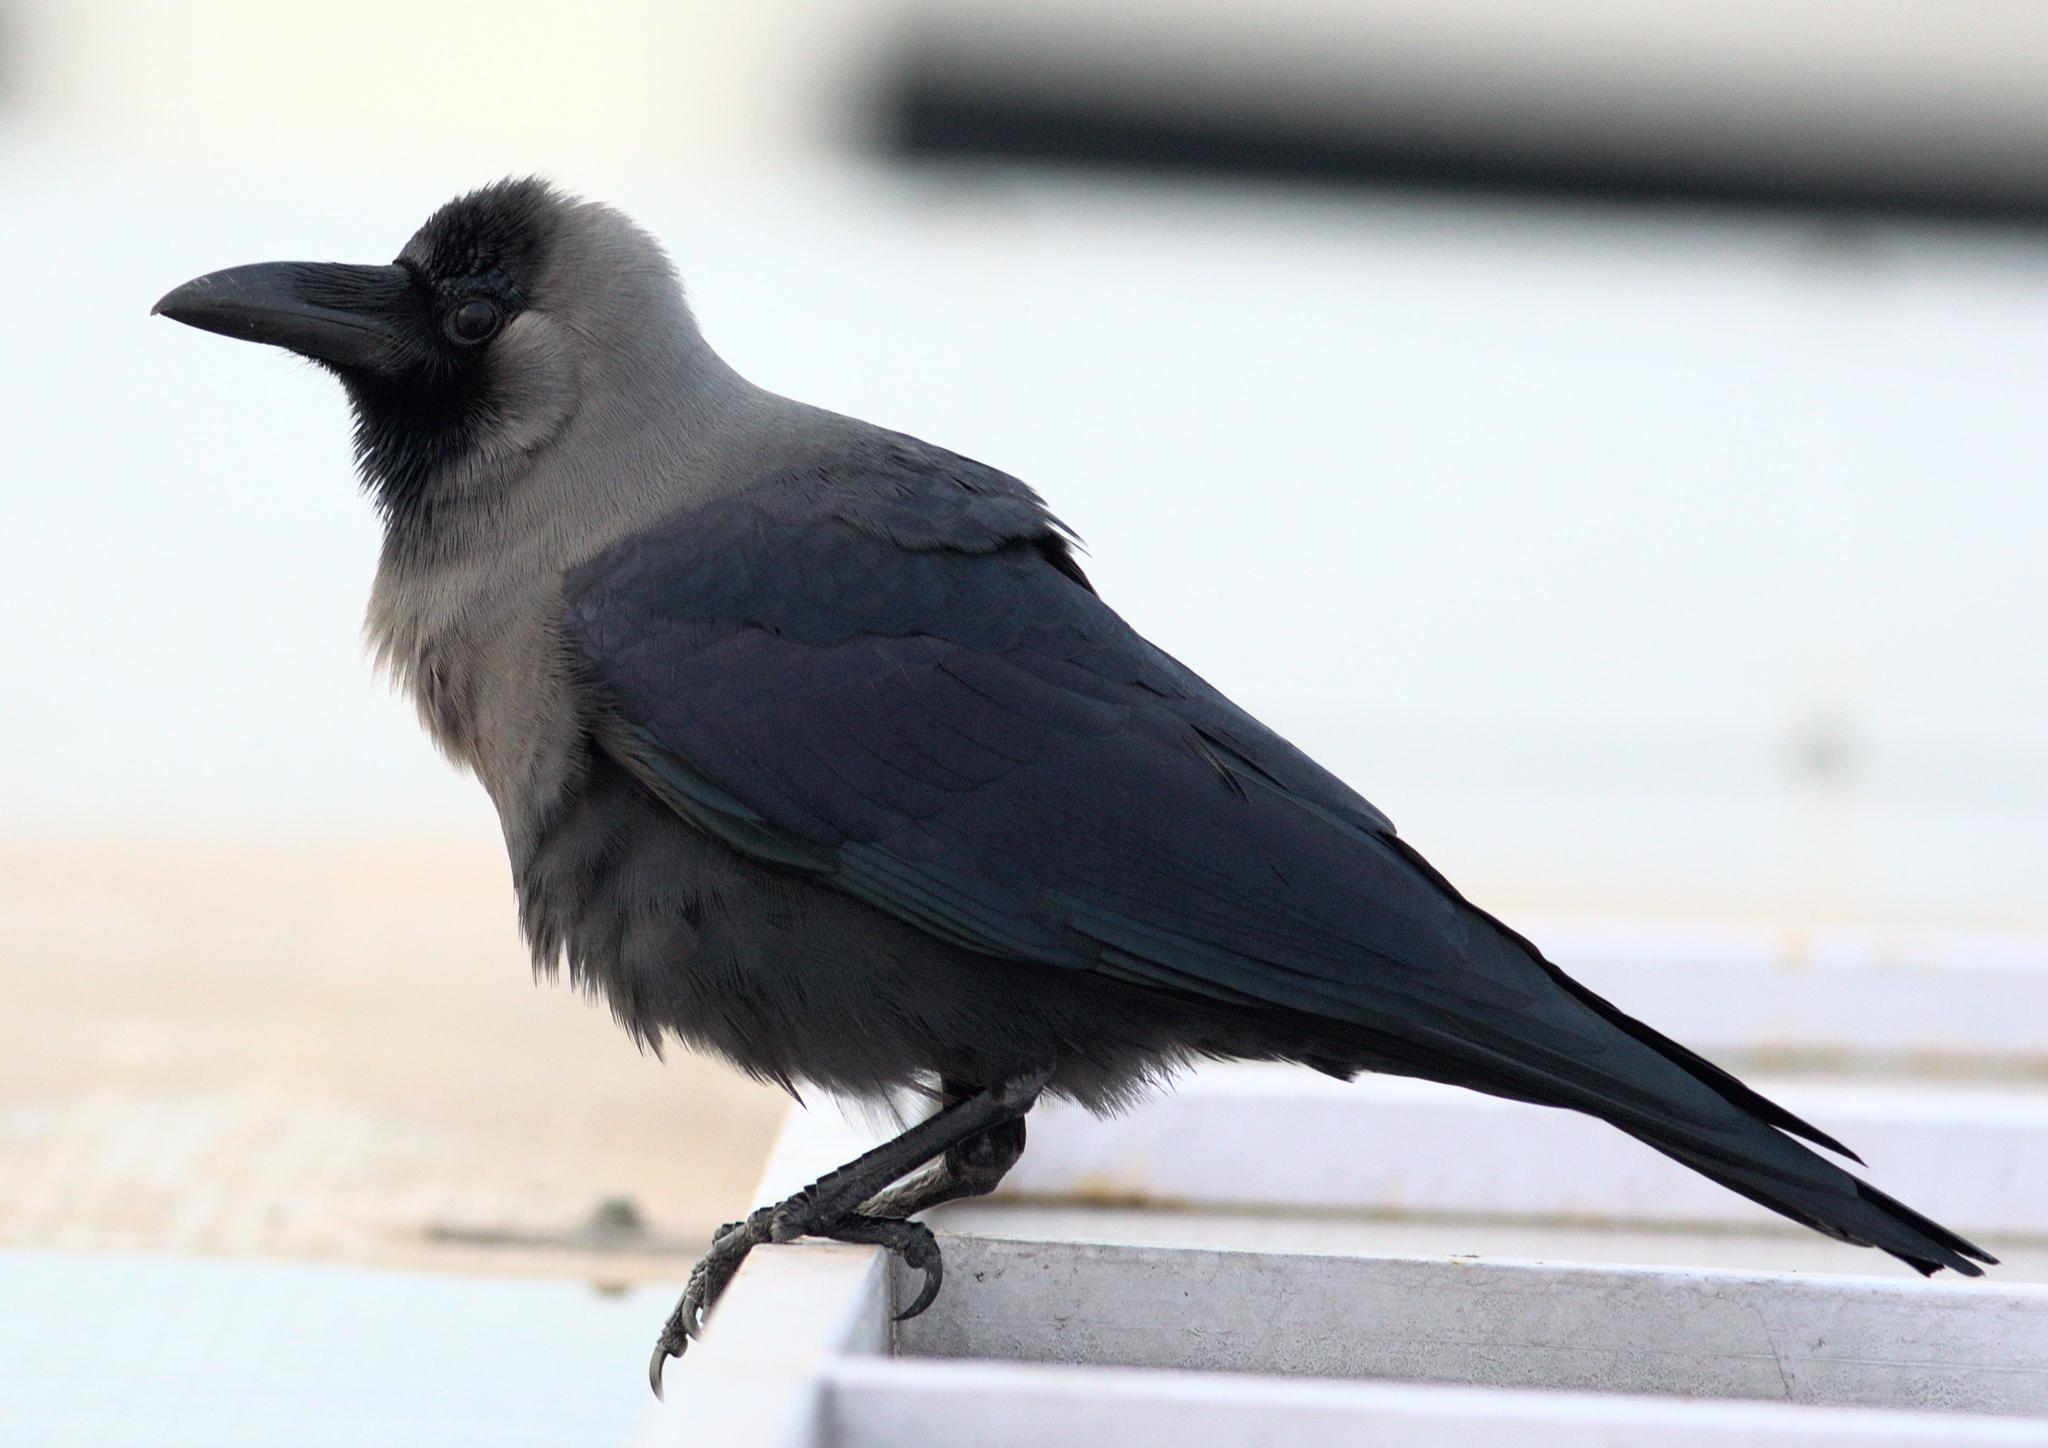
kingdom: Animalia
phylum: Chordata
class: Aves
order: Passeriformes
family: Corvidae
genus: Corvus
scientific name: Corvus splendens
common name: House crow
